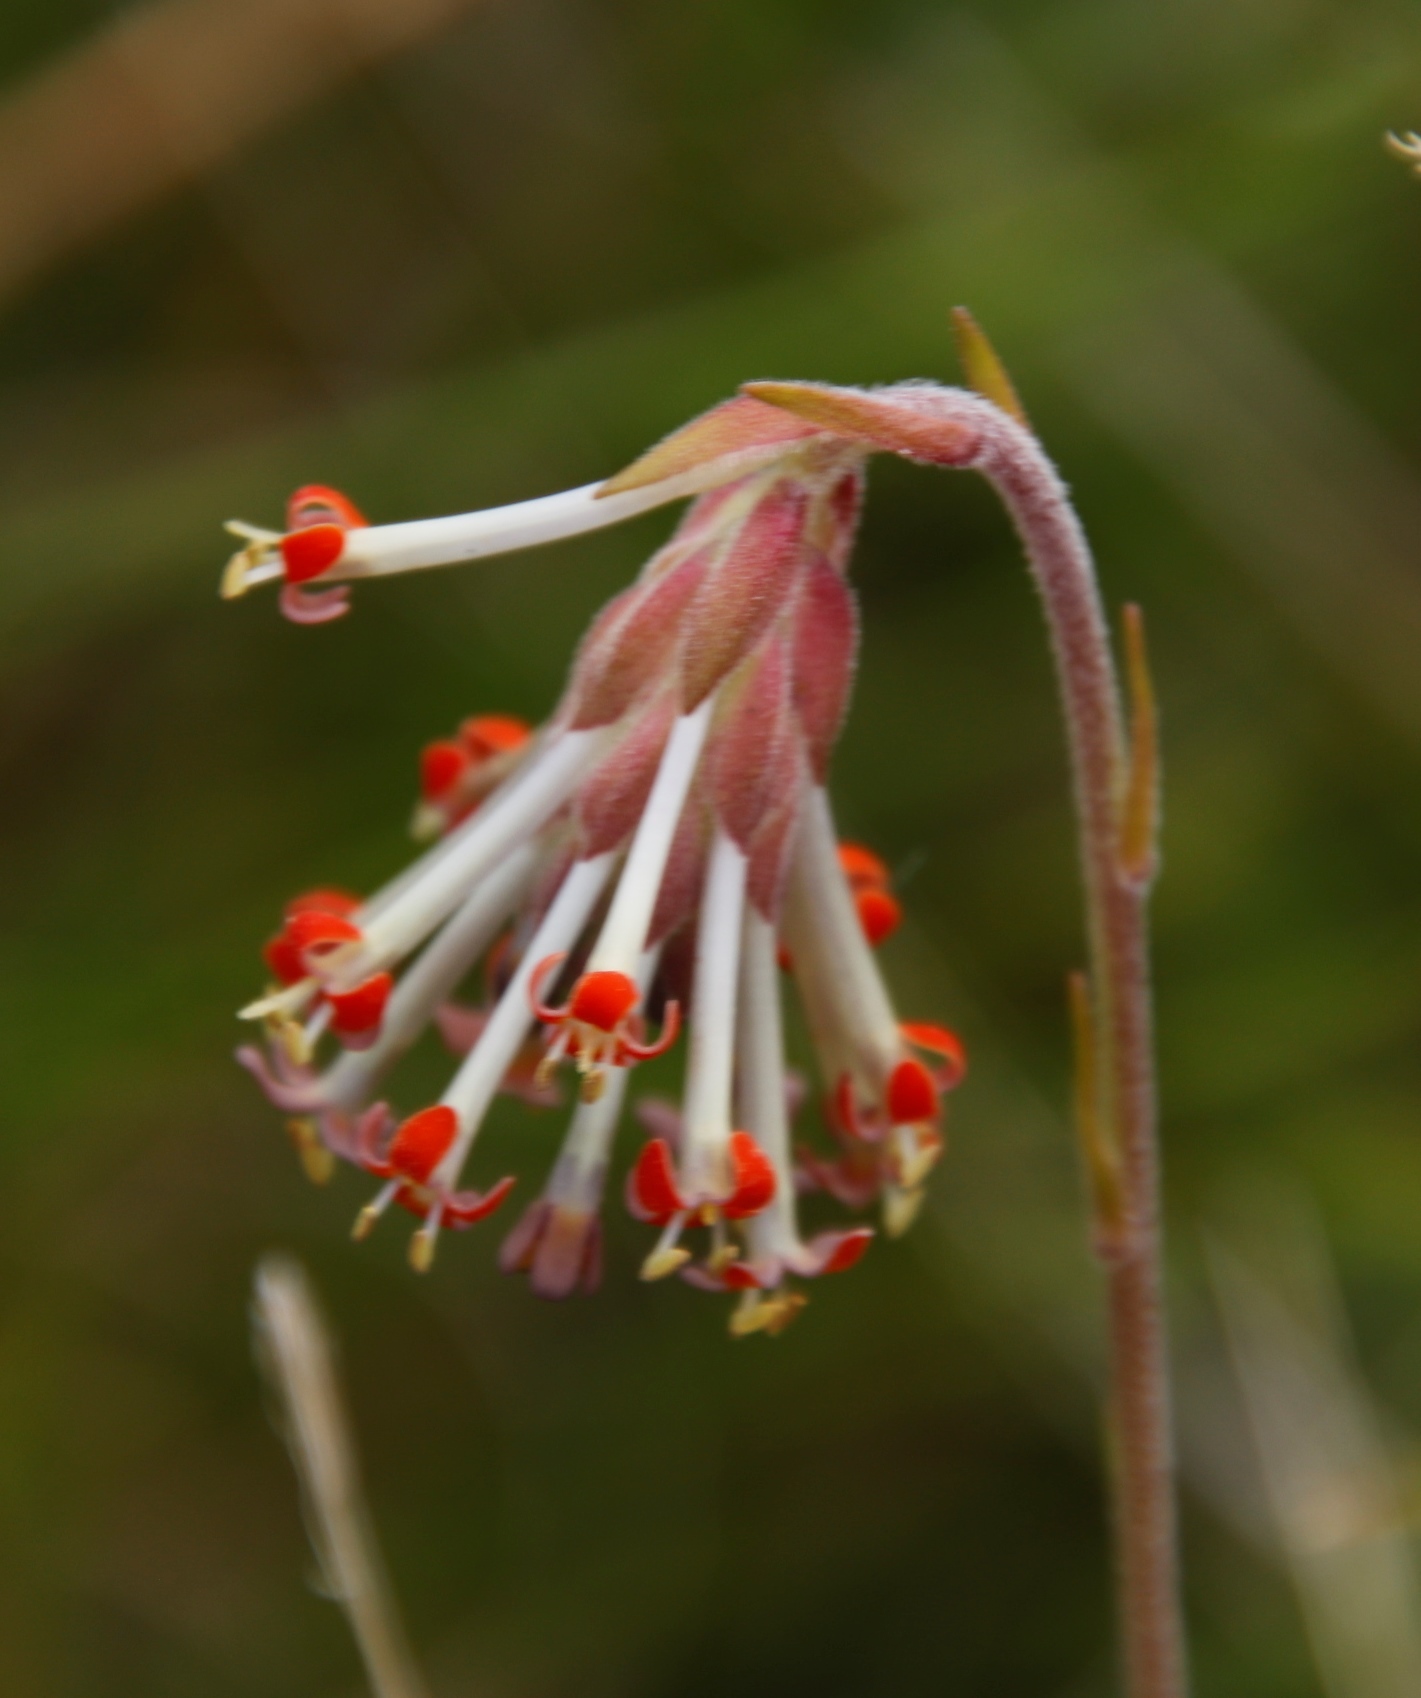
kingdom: Plantae
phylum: Tracheophyta
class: Magnoliopsida
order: Lamiales
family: Scrophulariaceae
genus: Glumicalyx
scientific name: Glumicalyx nutans
